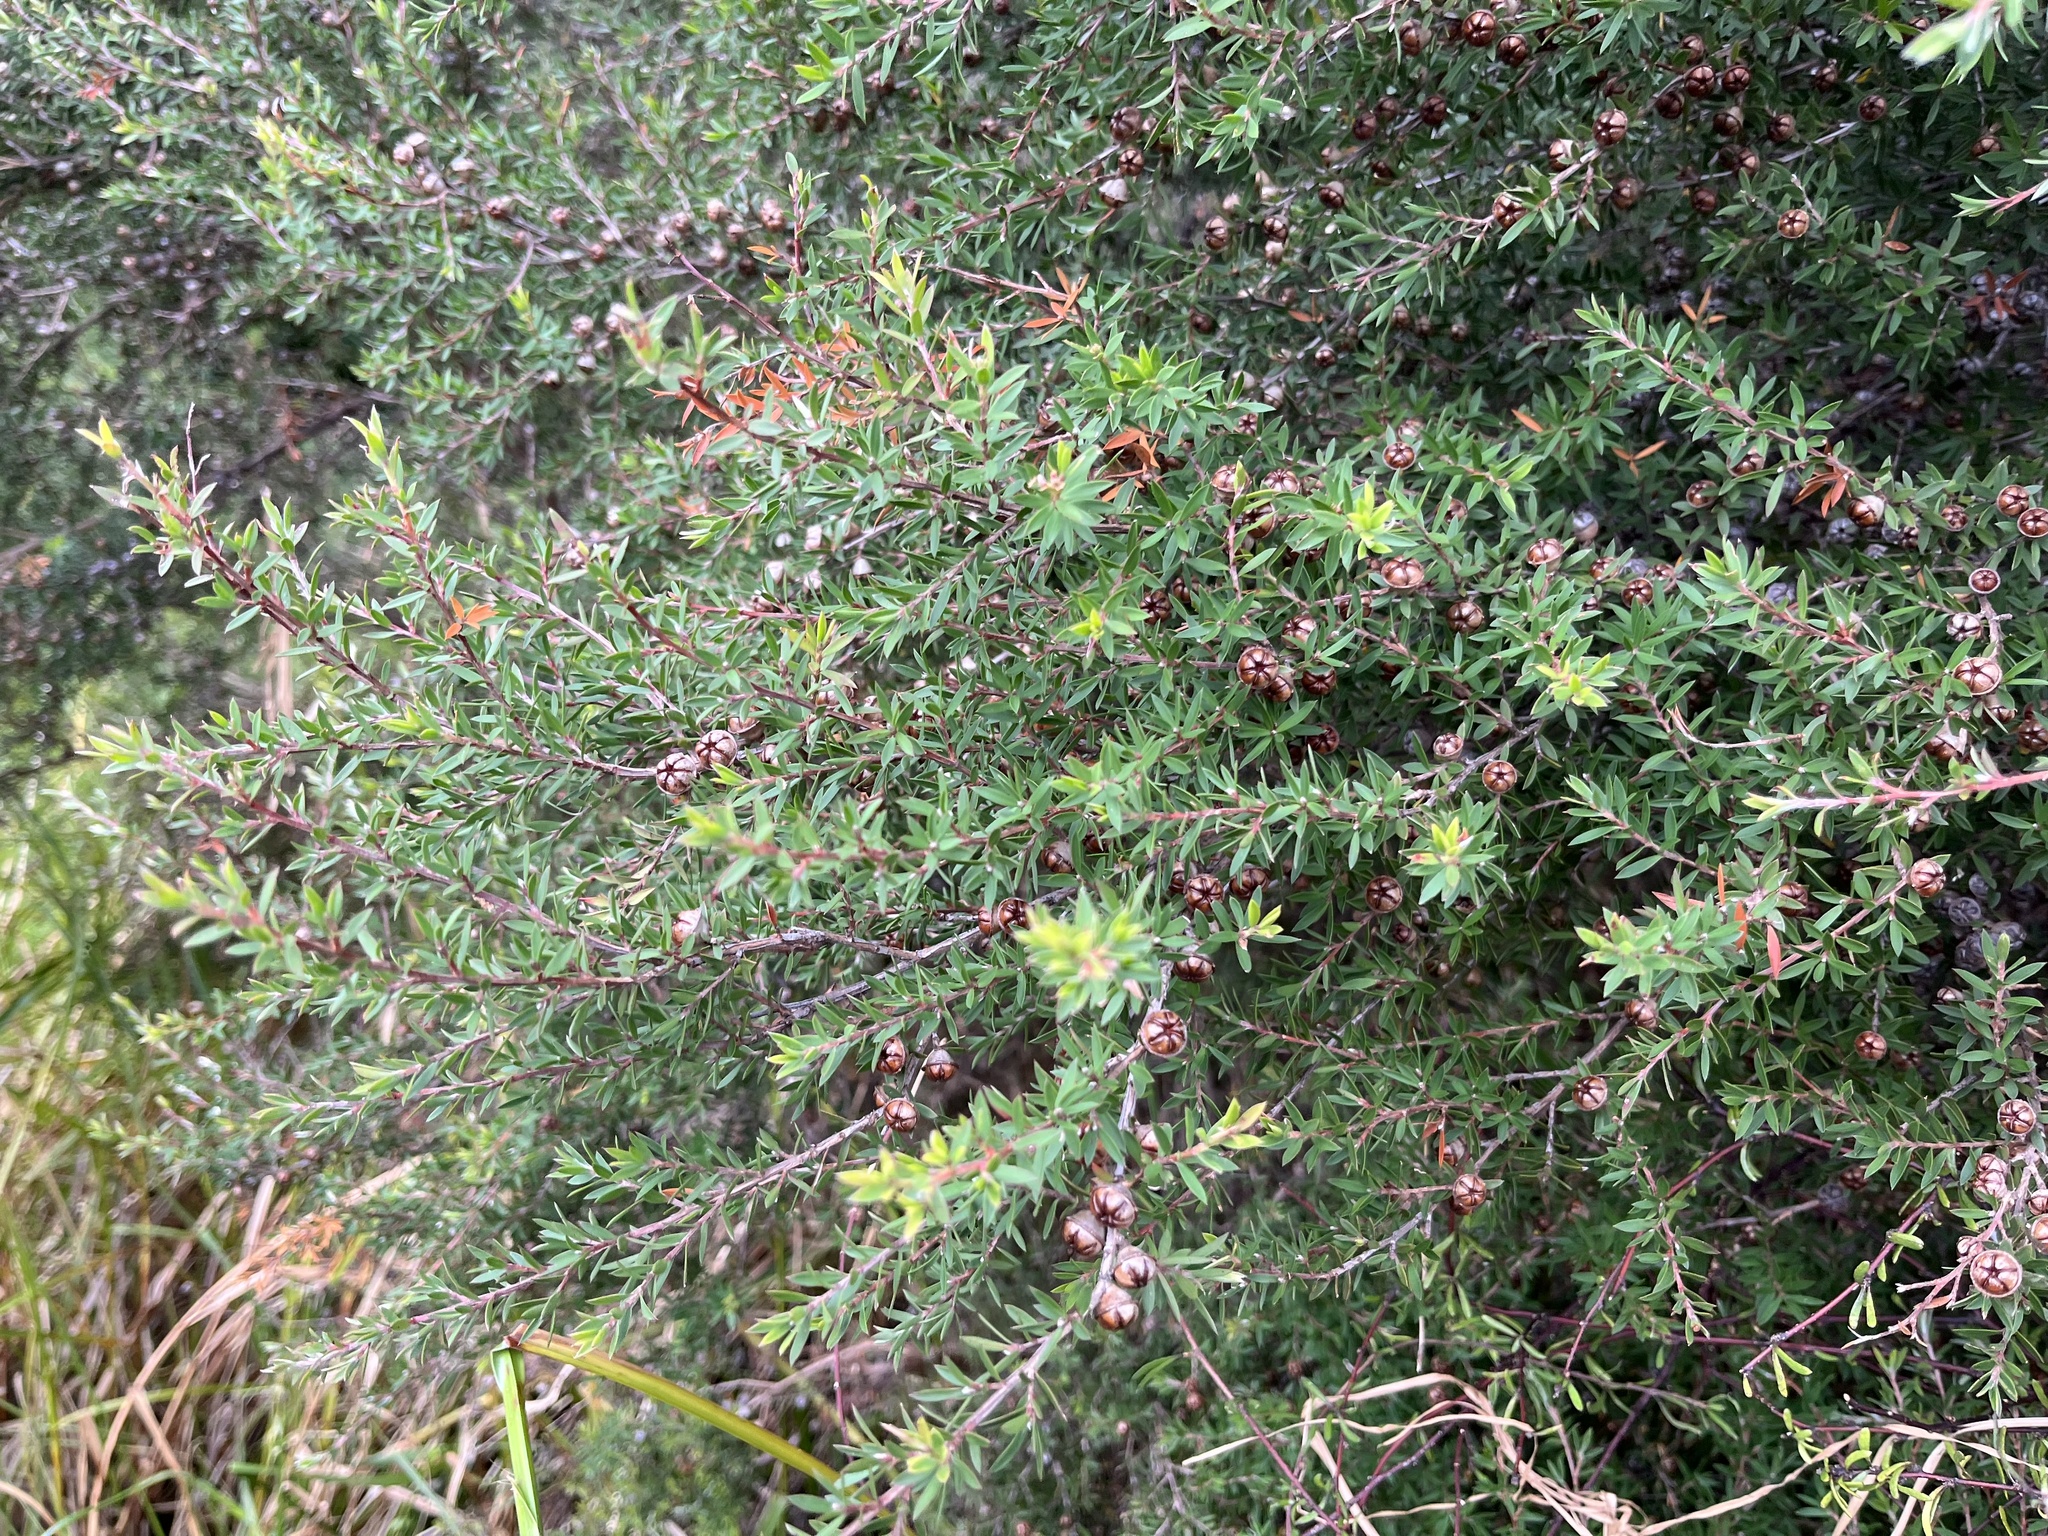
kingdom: Plantae
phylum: Tracheophyta
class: Magnoliopsida
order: Myrtales
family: Myrtaceae
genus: Leptospermum
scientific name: Leptospermum scoparium
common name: Broom tea-tree
